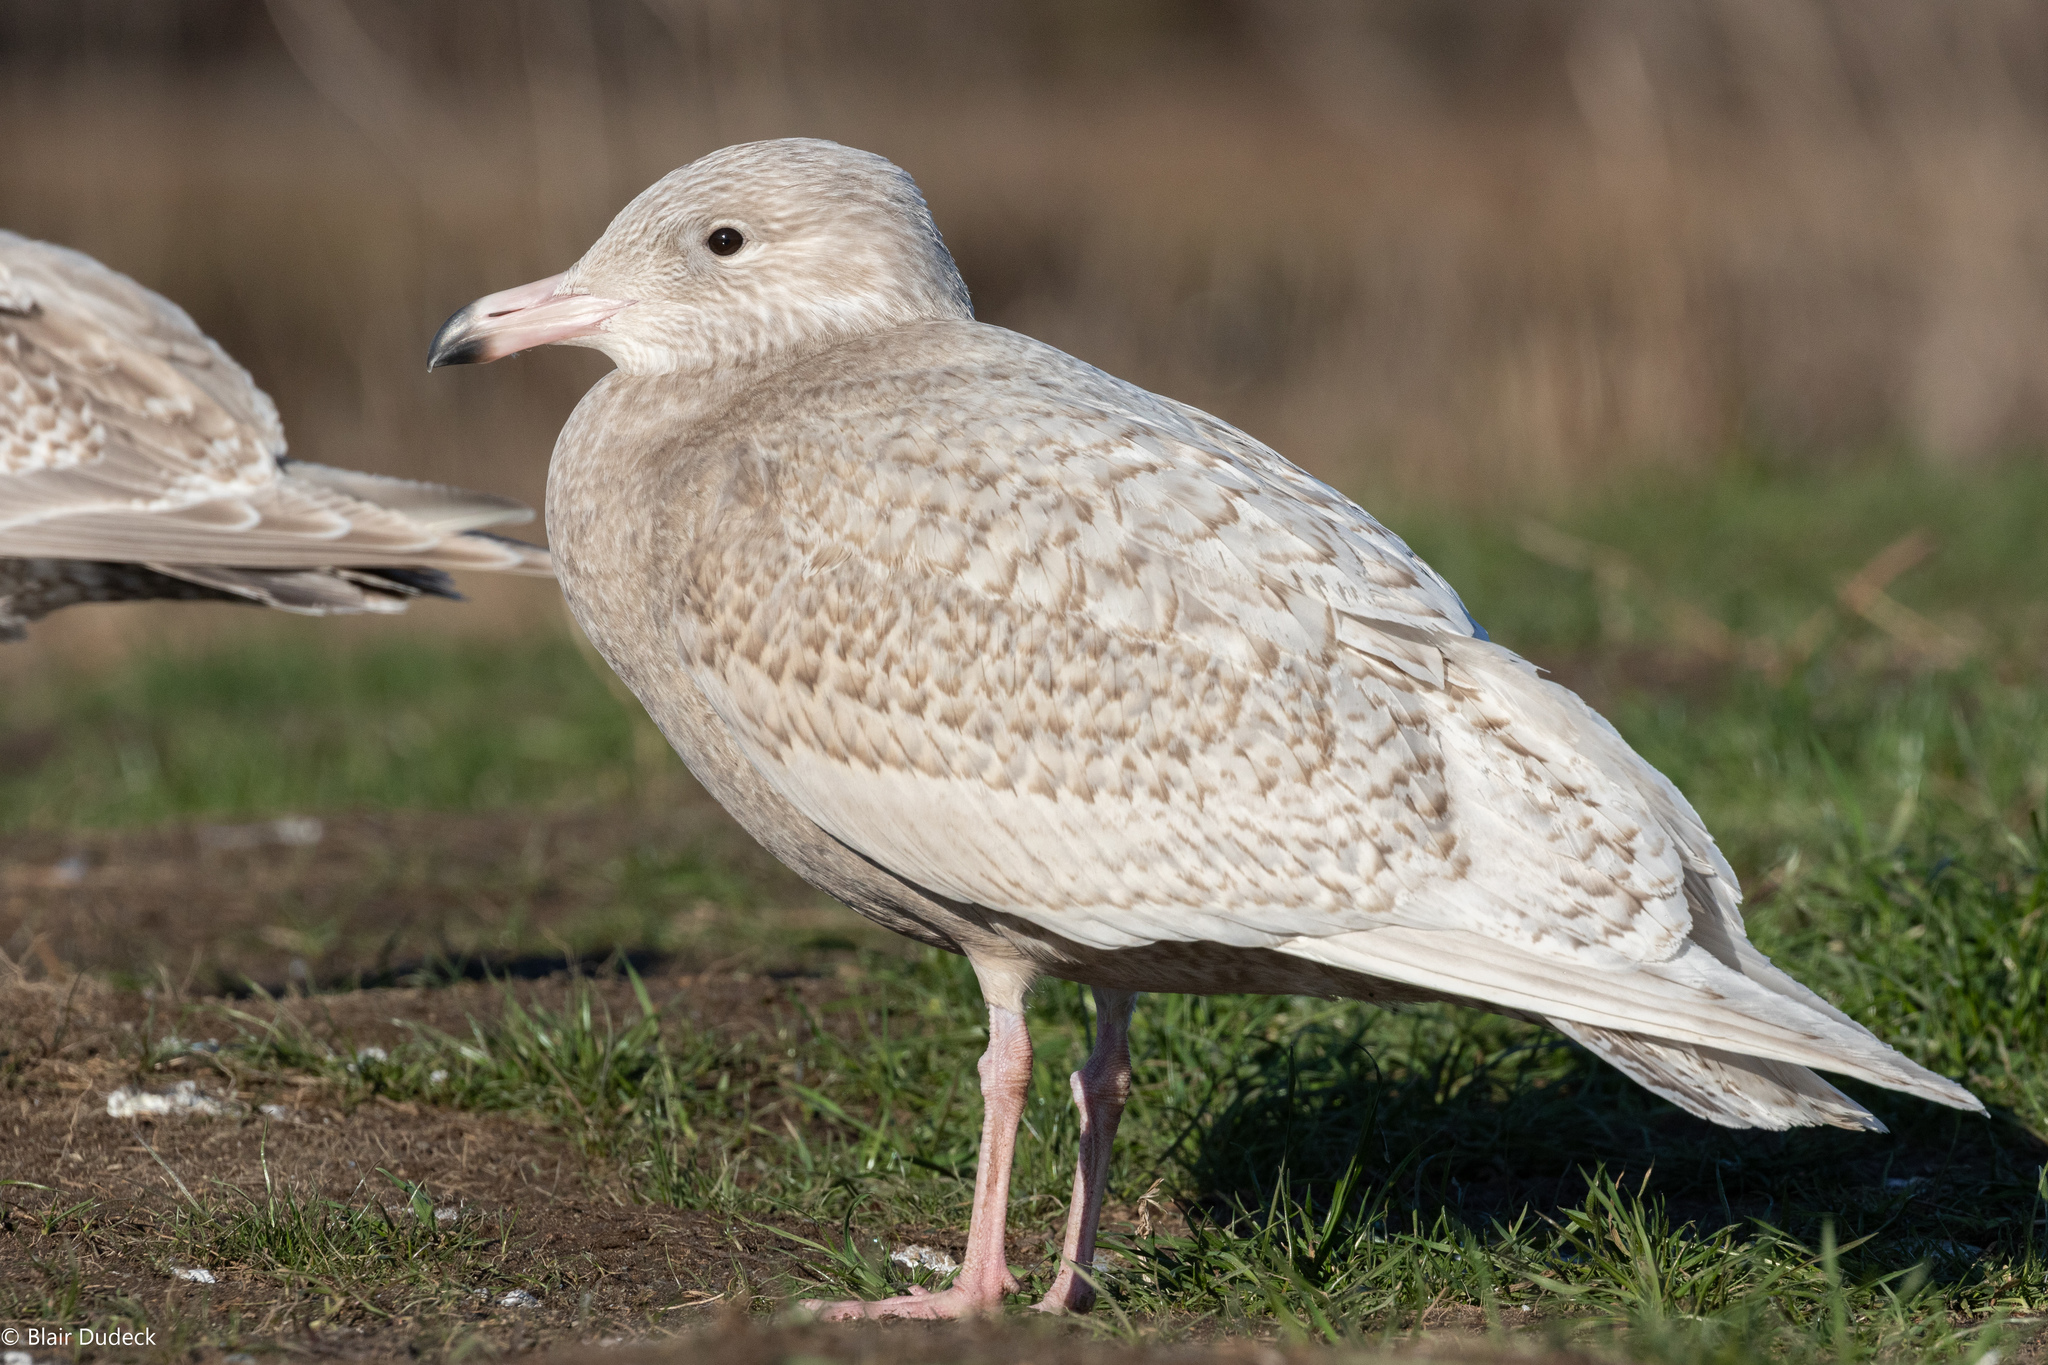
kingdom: Animalia
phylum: Chordata
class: Aves
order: Charadriiformes
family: Laridae
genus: Larus
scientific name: Larus hyperboreus
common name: Glaucous gull
